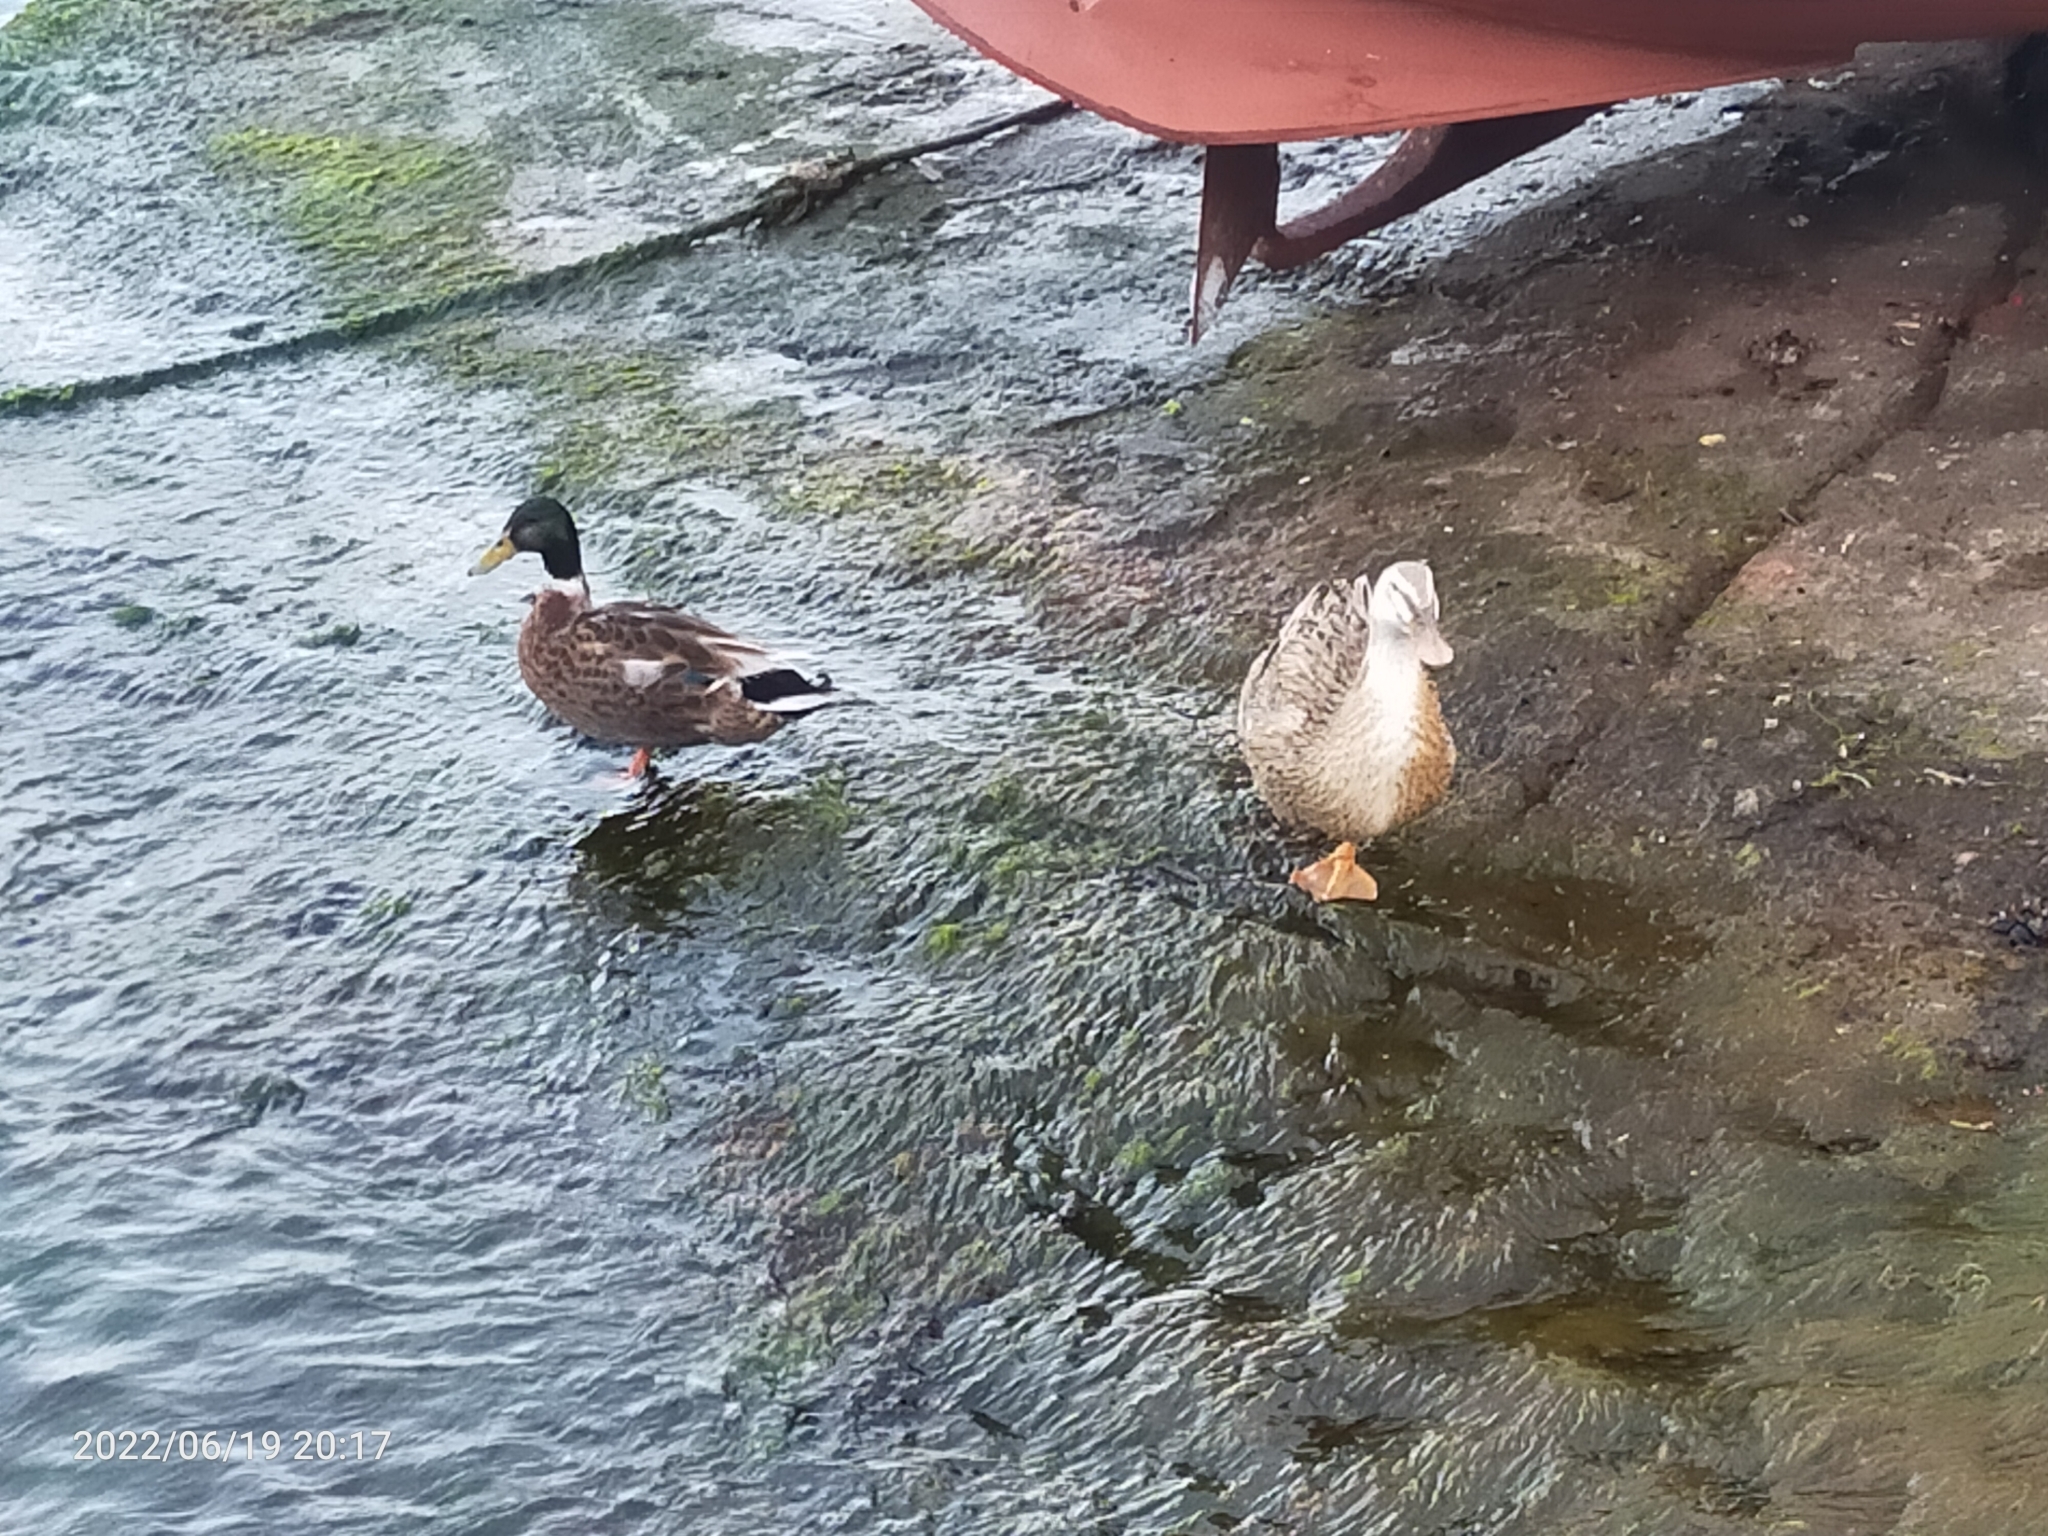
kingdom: Animalia
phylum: Chordata
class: Aves
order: Anseriformes
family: Anatidae
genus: Anas
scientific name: Anas platyrhynchos
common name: Mallard
